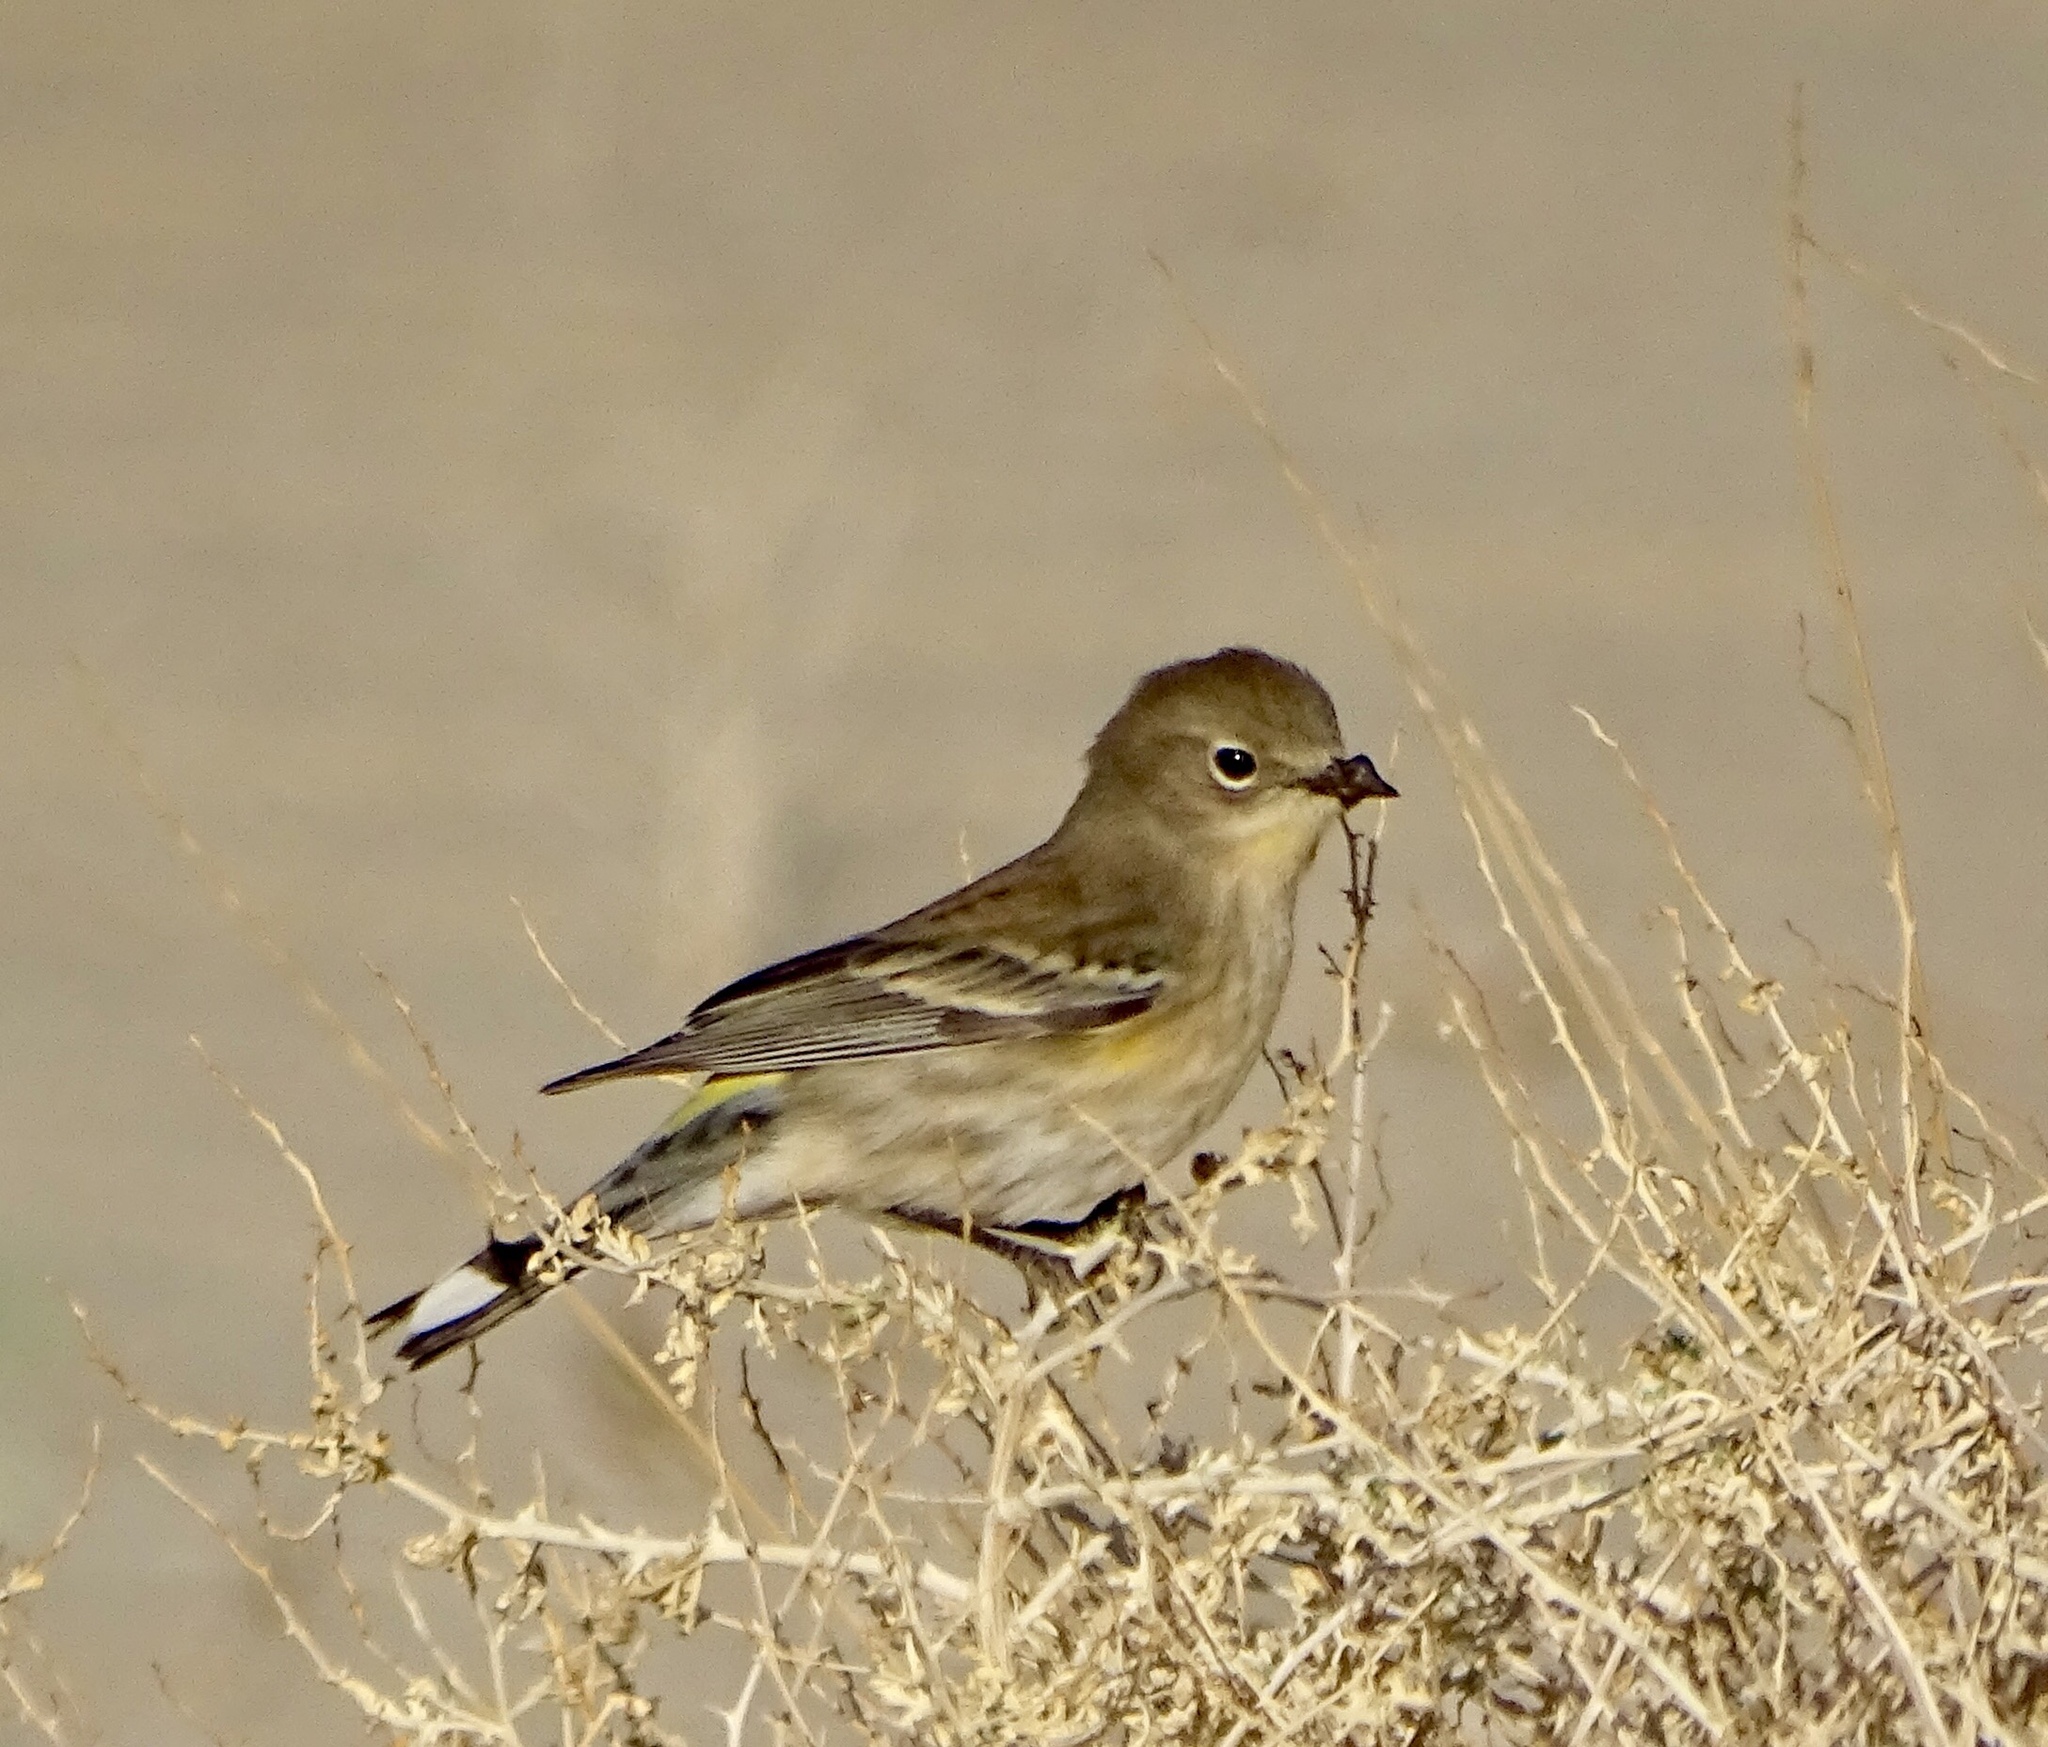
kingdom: Animalia
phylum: Chordata
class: Aves
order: Passeriformes
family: Parulidae
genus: Setophaga
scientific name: Setophaga coronata
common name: Myrtle warbler
